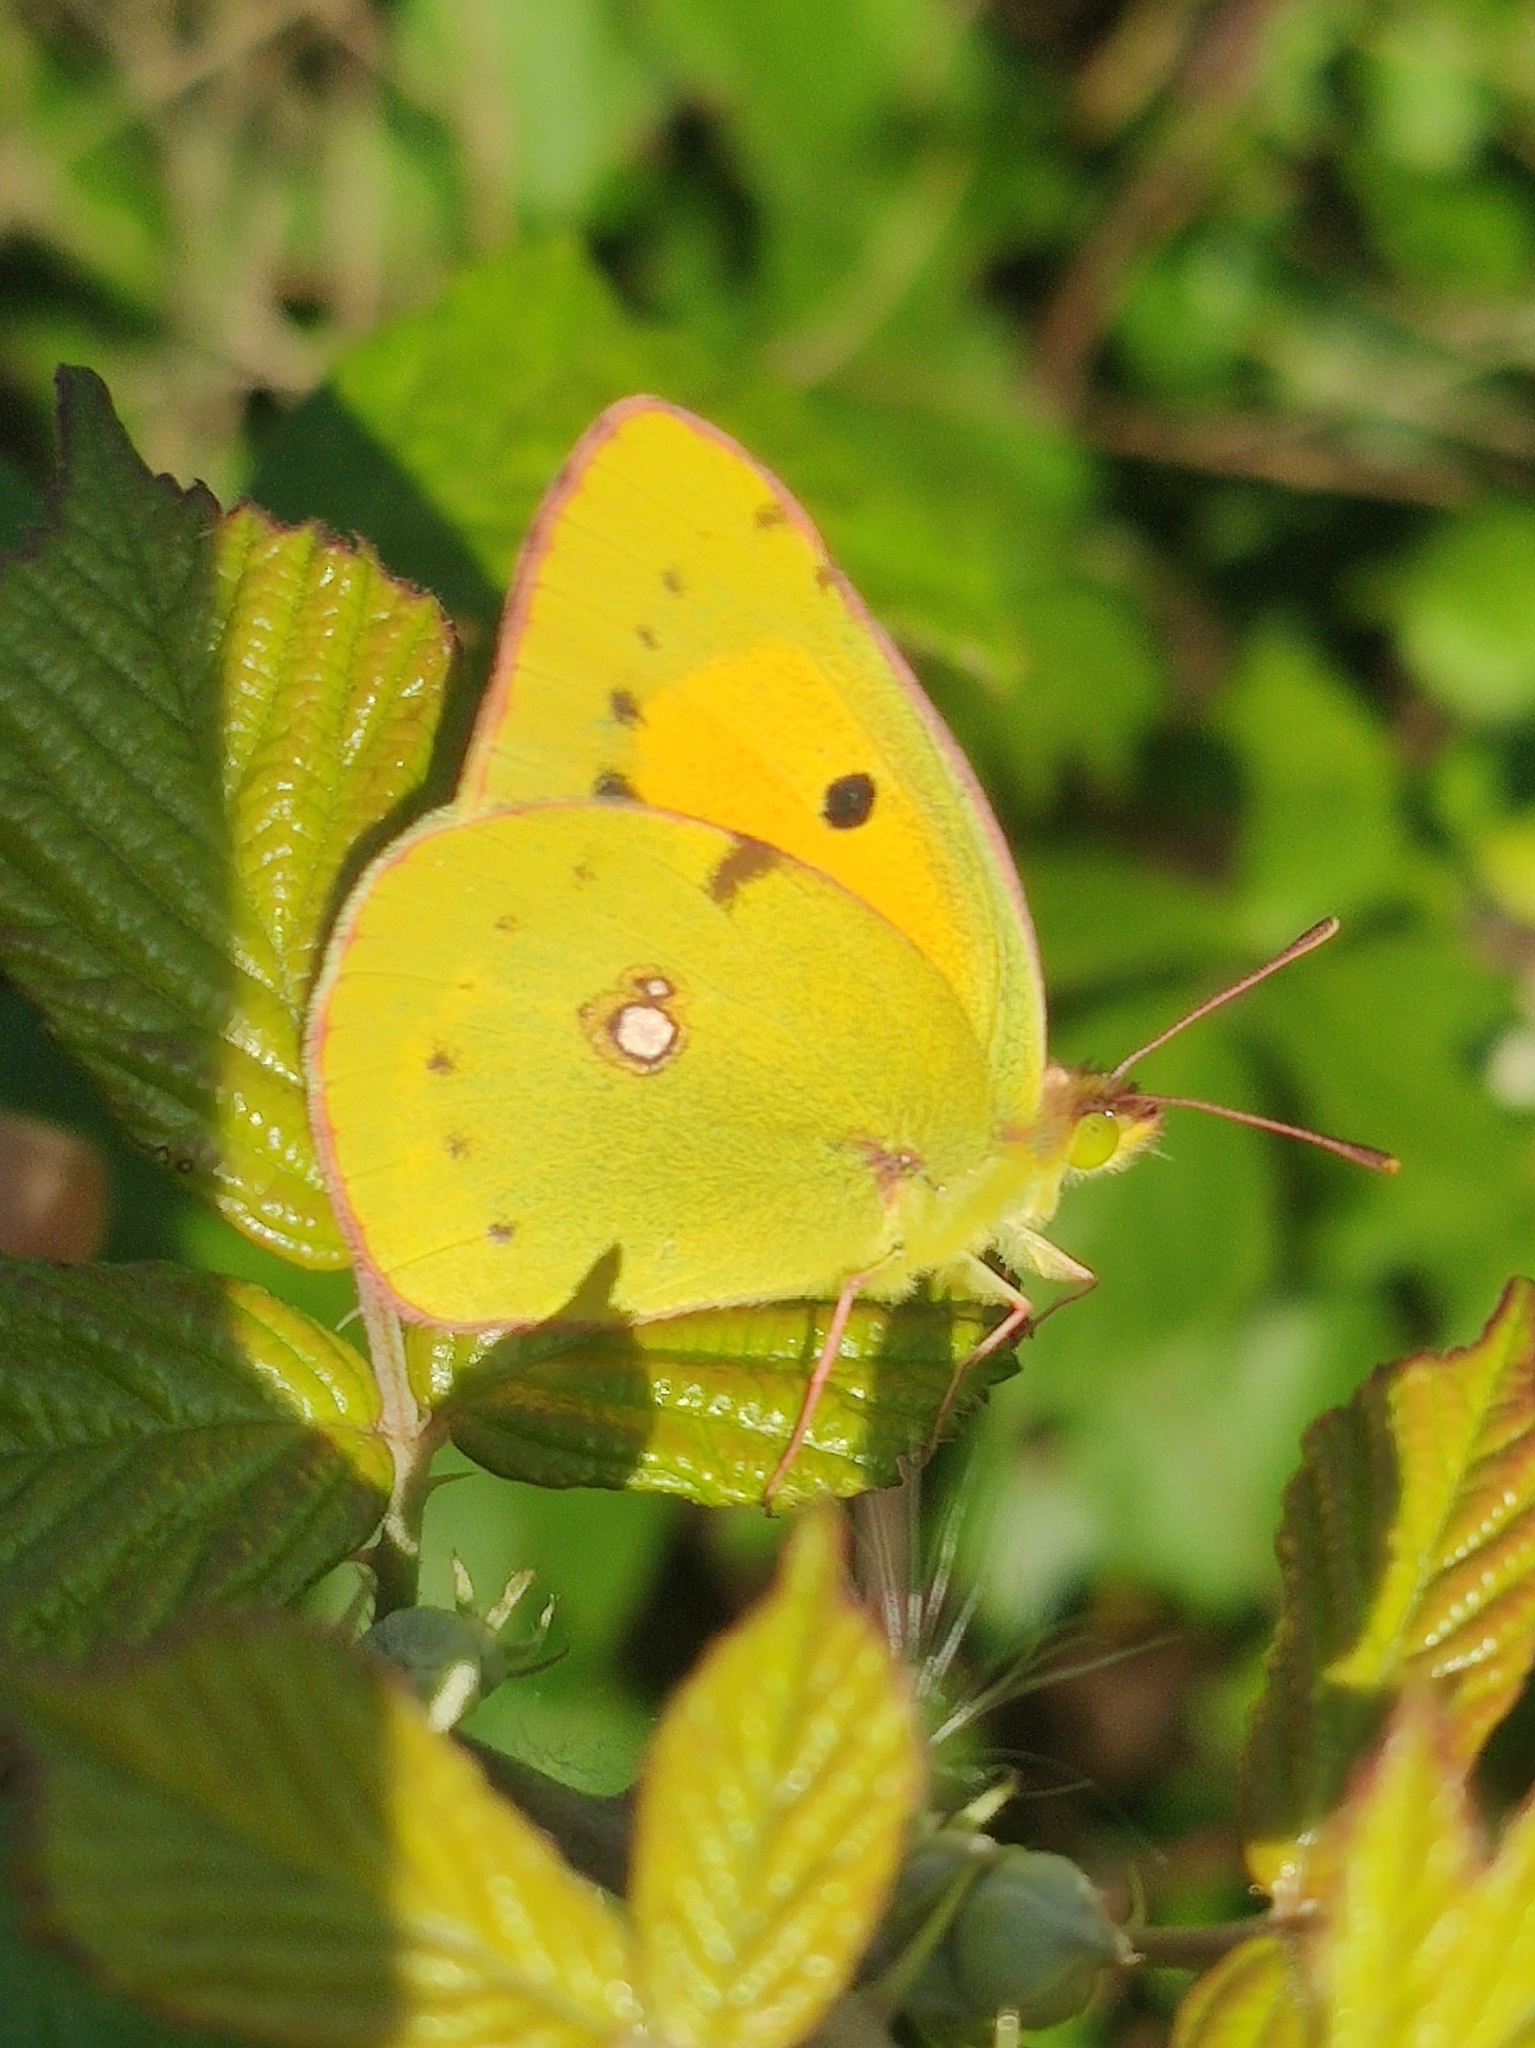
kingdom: Animalia
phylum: Arthropoda
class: Insecta
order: Lepidoptera
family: Pieridae
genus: Colias
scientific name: Colias croceus
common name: Clouded yellow
